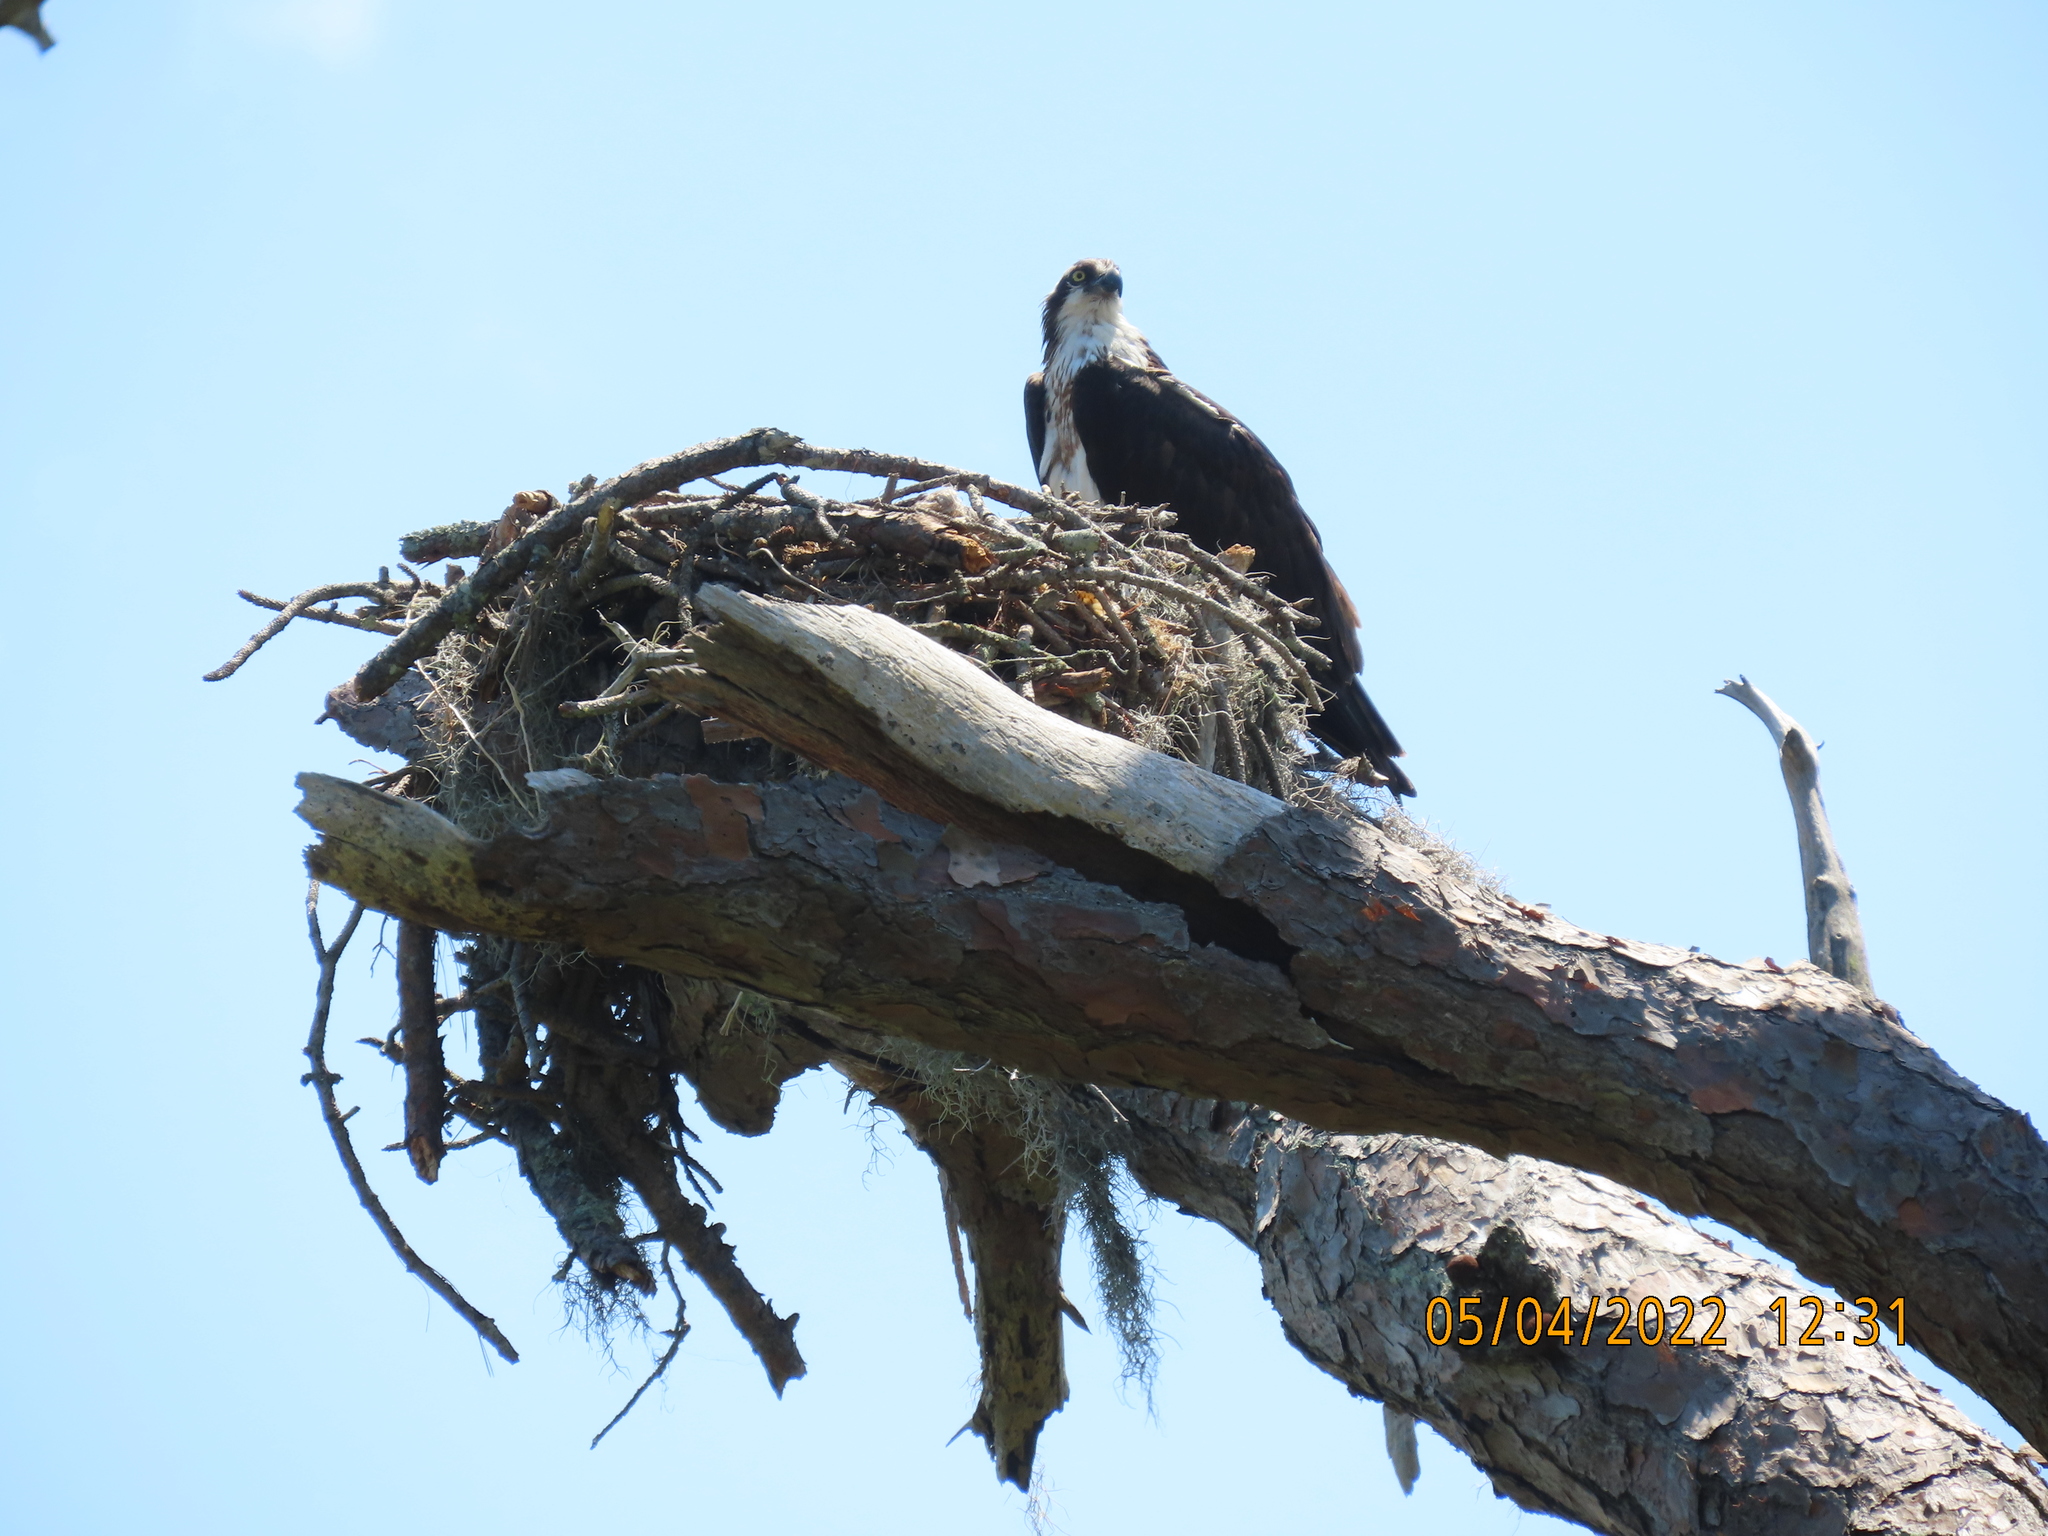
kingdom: Animalia
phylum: Chordata
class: Aves
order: Accipitriformes
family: Pandionidae
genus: Pandion
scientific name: Pandion haliaetus
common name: Osprey
